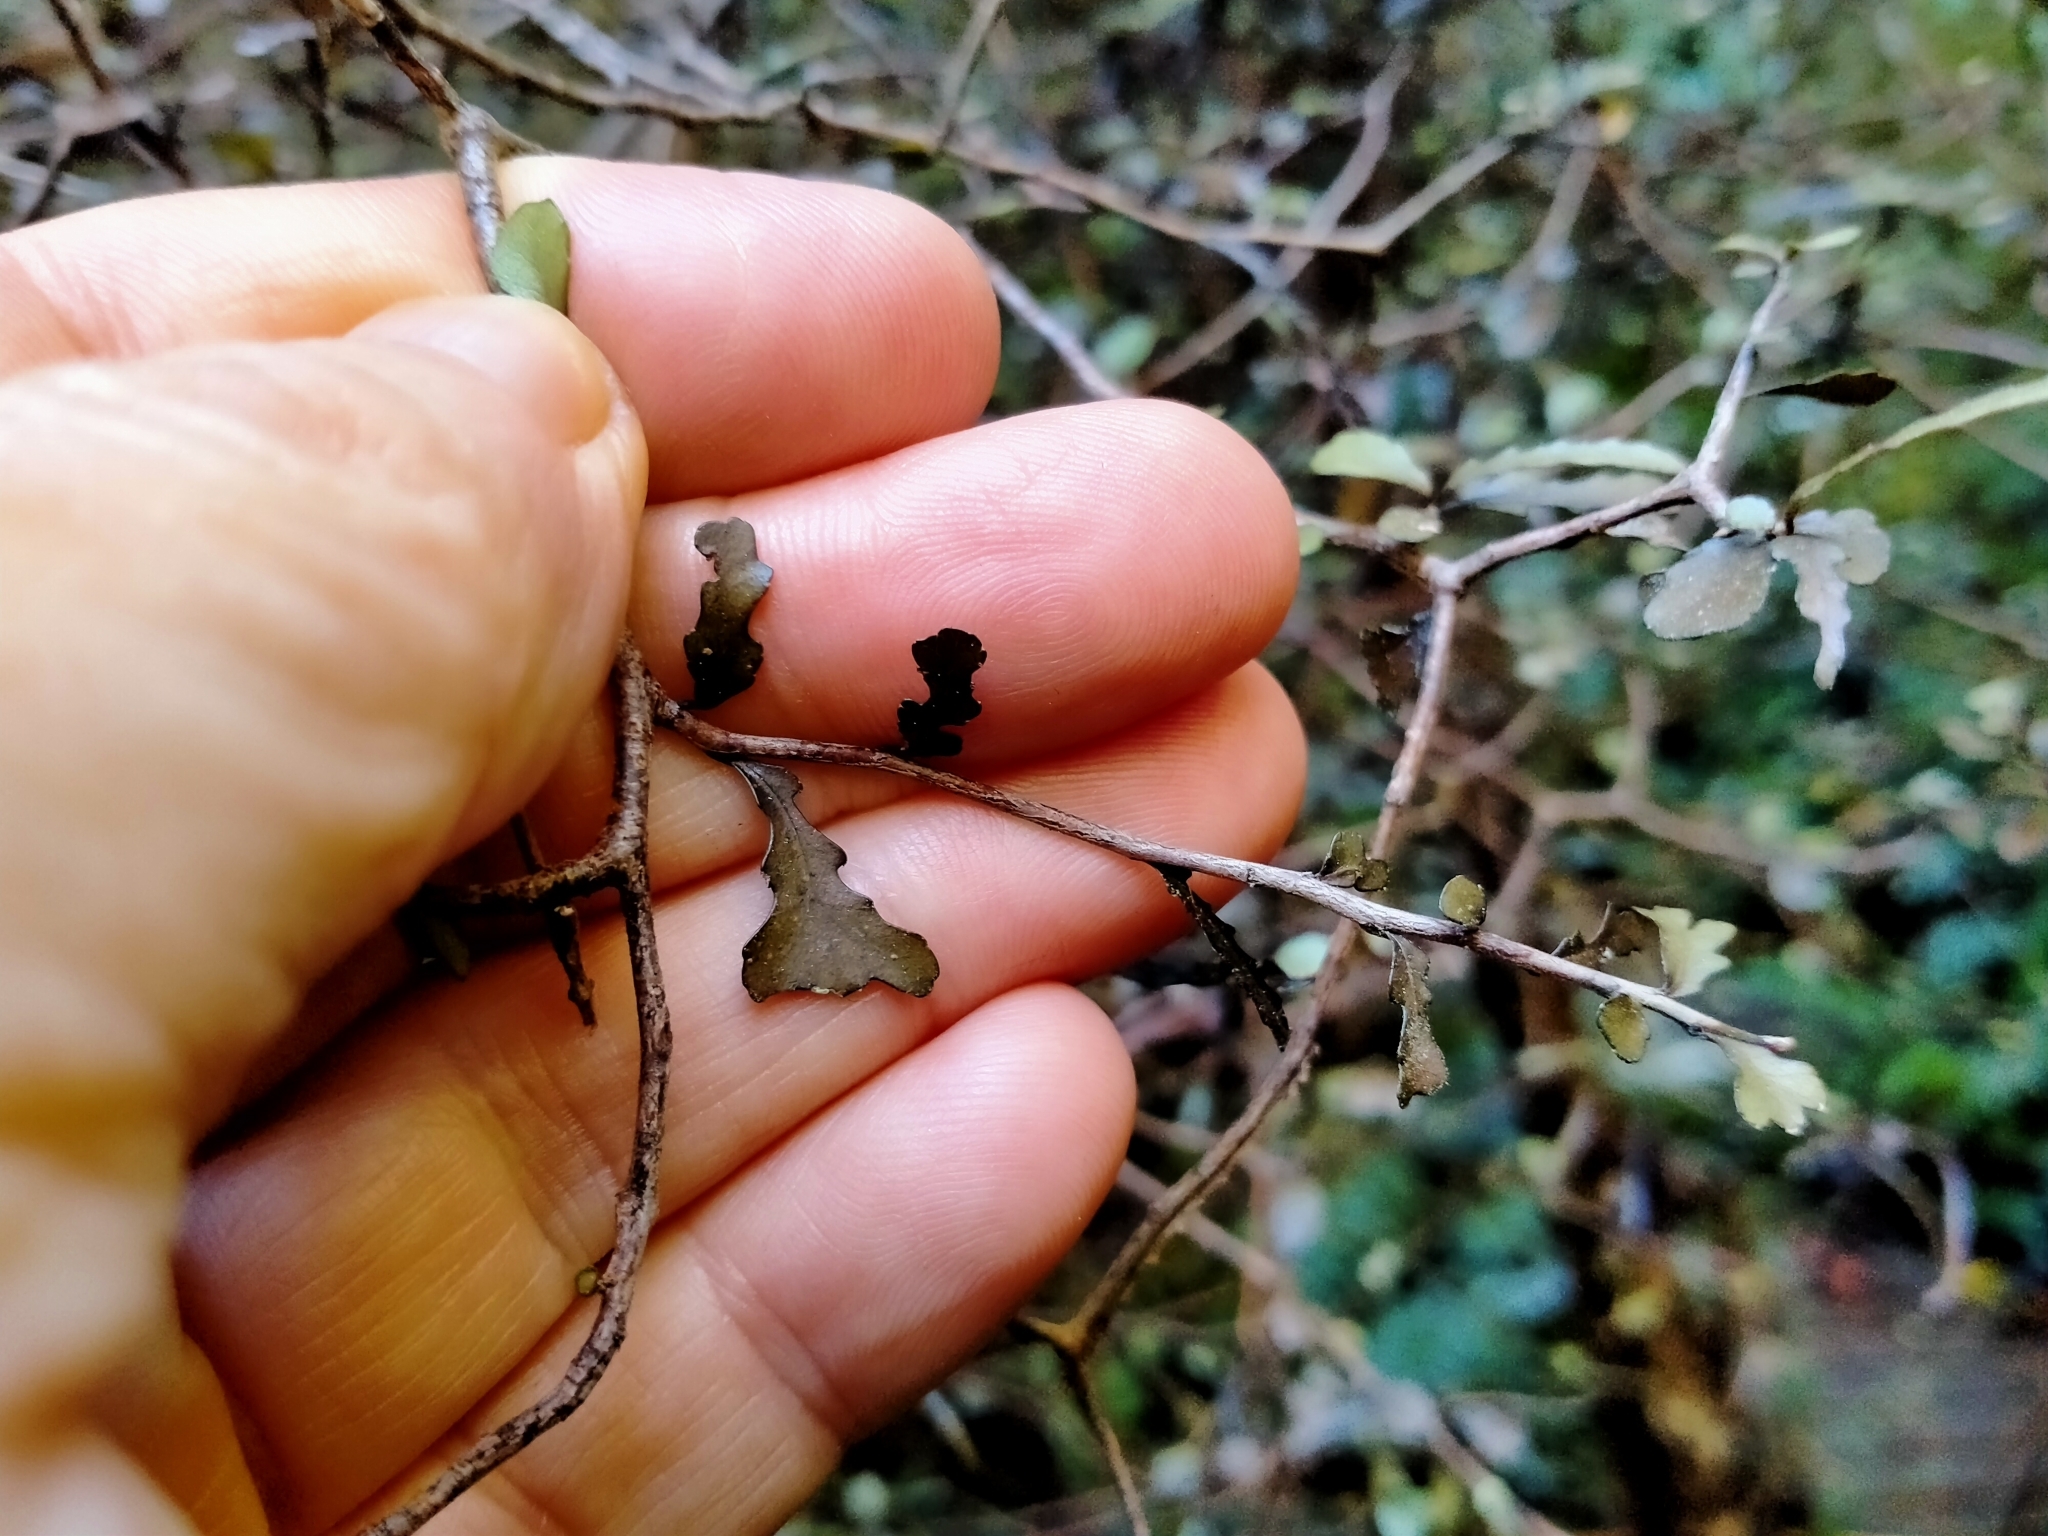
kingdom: Plantae
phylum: Tracheophyta
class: Magnoliopsida
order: Oxalidales
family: Elaeocarpaceae
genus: Elaeocarpus
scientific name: Elaeocarpus hookerianus
